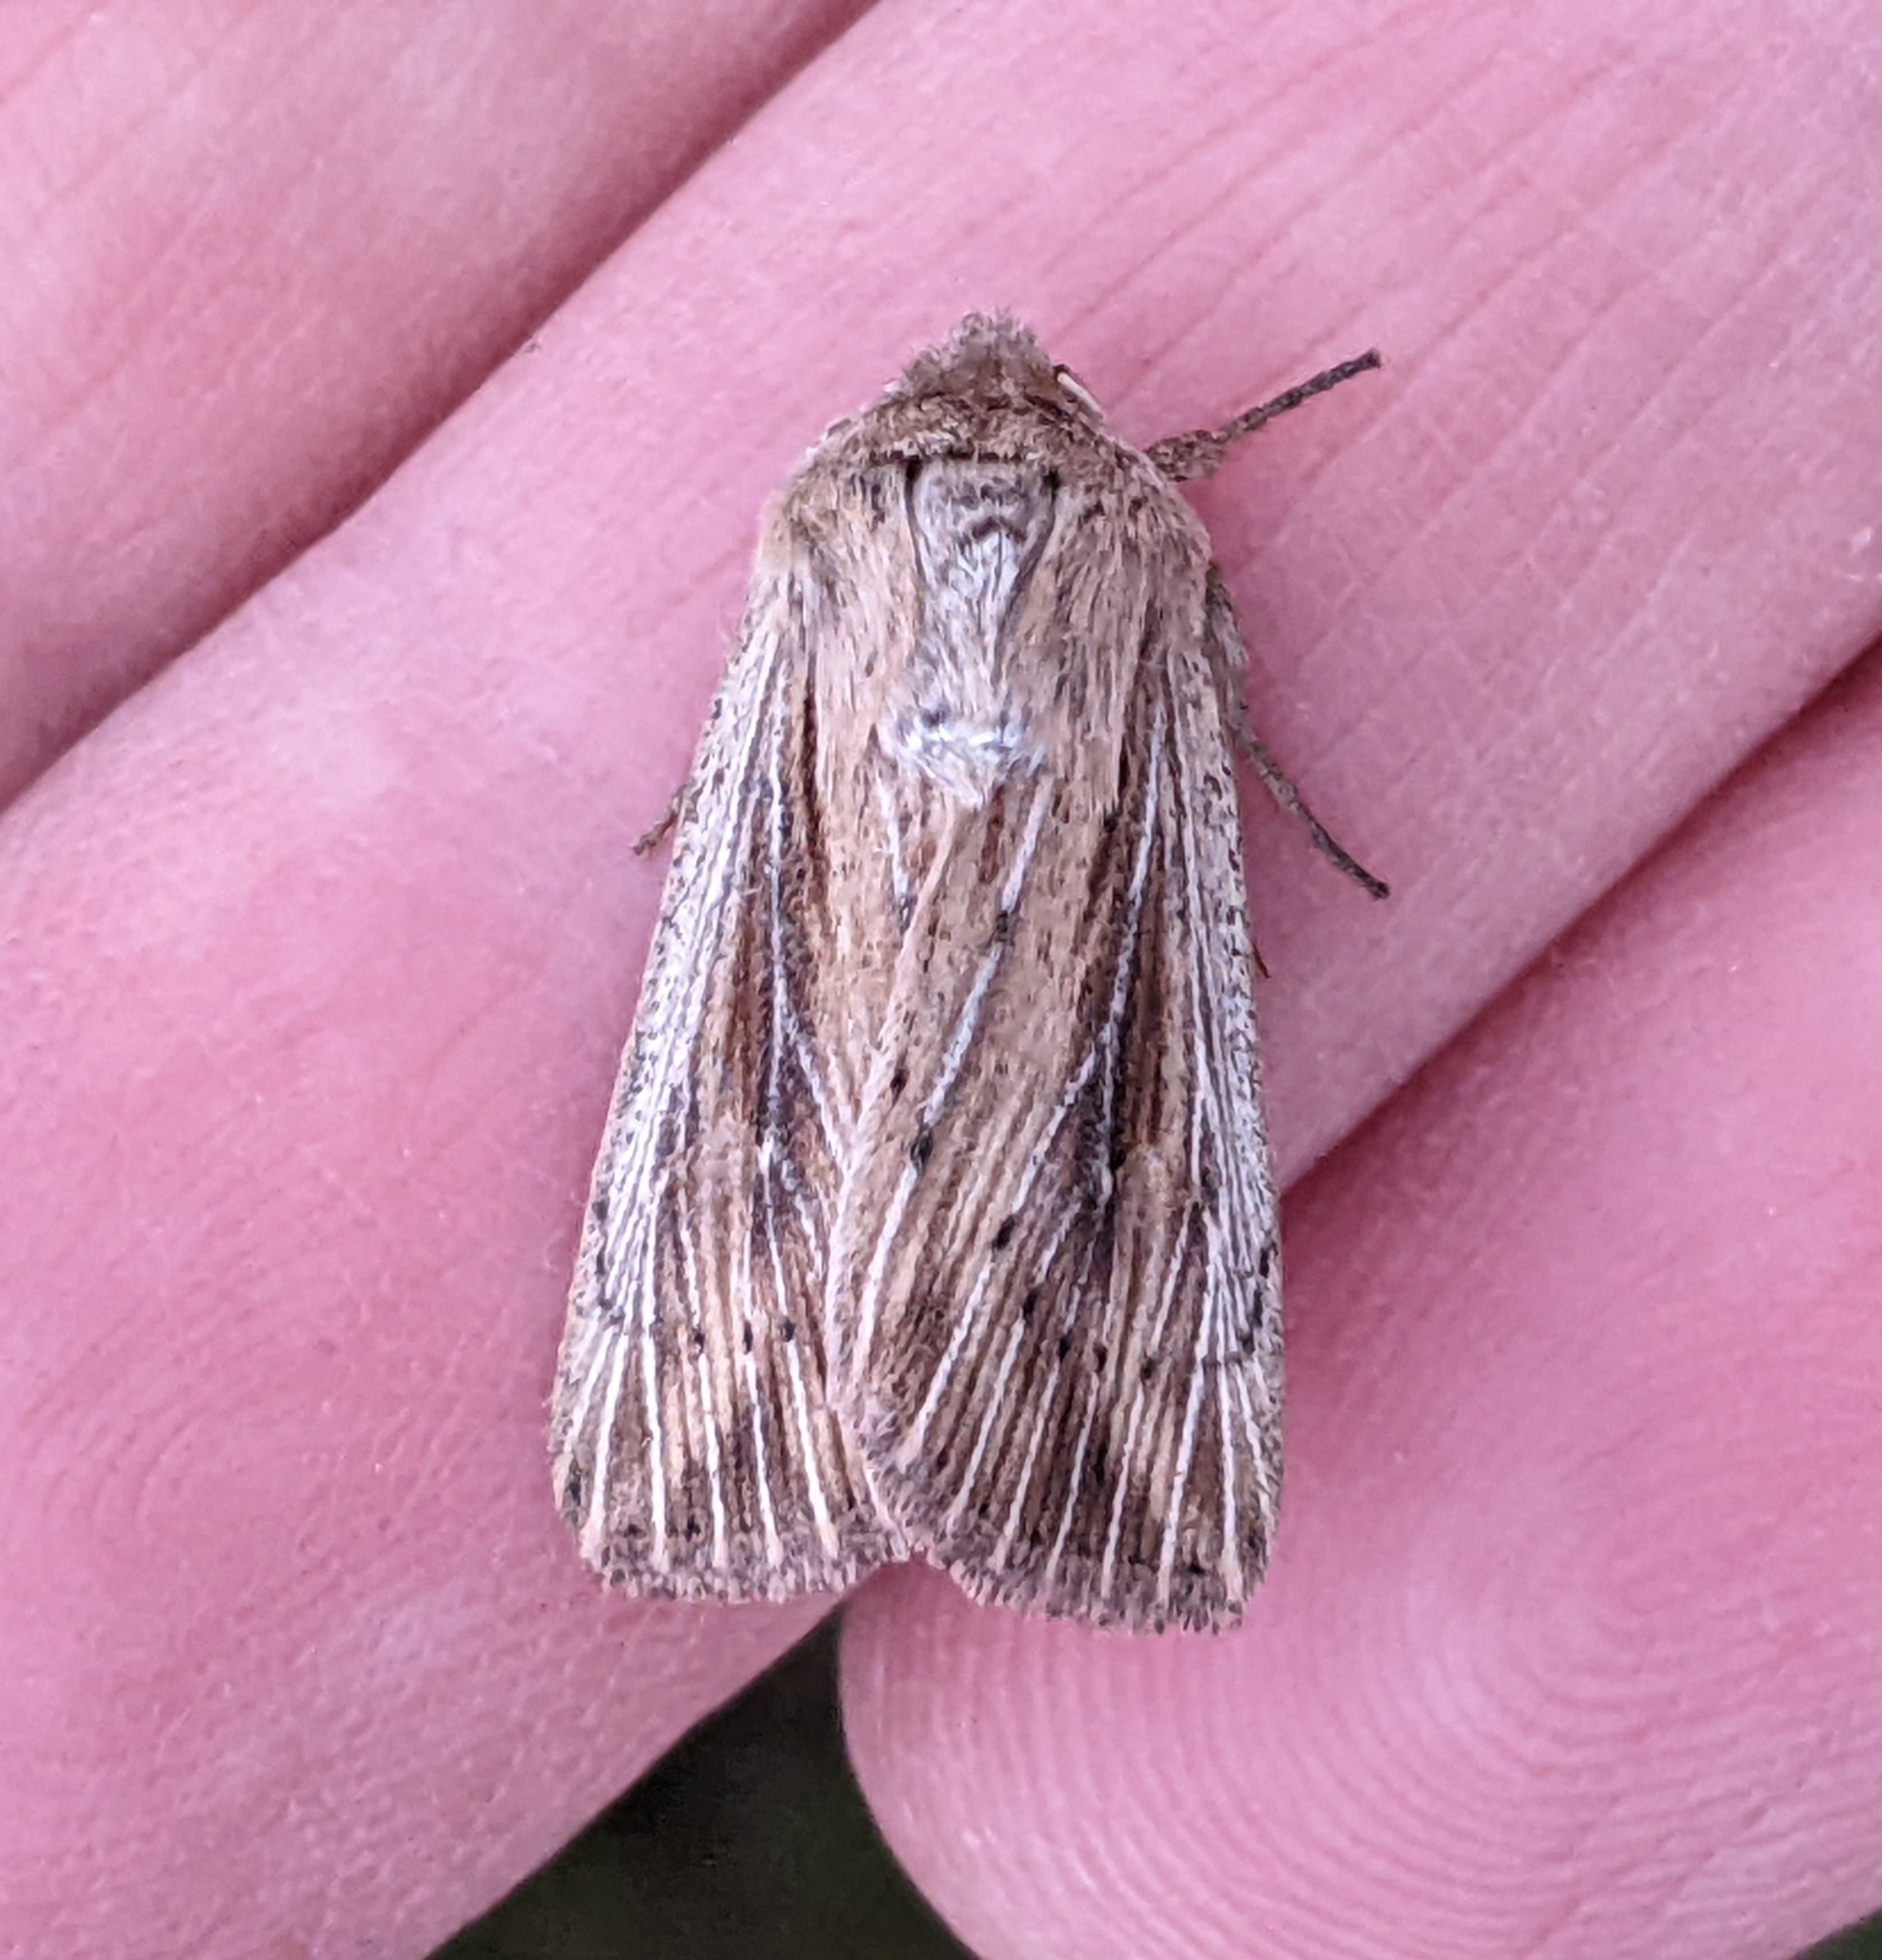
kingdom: Animalia
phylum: Arthropoda
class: Insecta
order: Lepidoptera
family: Noctuidae
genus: Leucania
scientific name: Leucania insueta
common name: Heterodox wainscot moth
